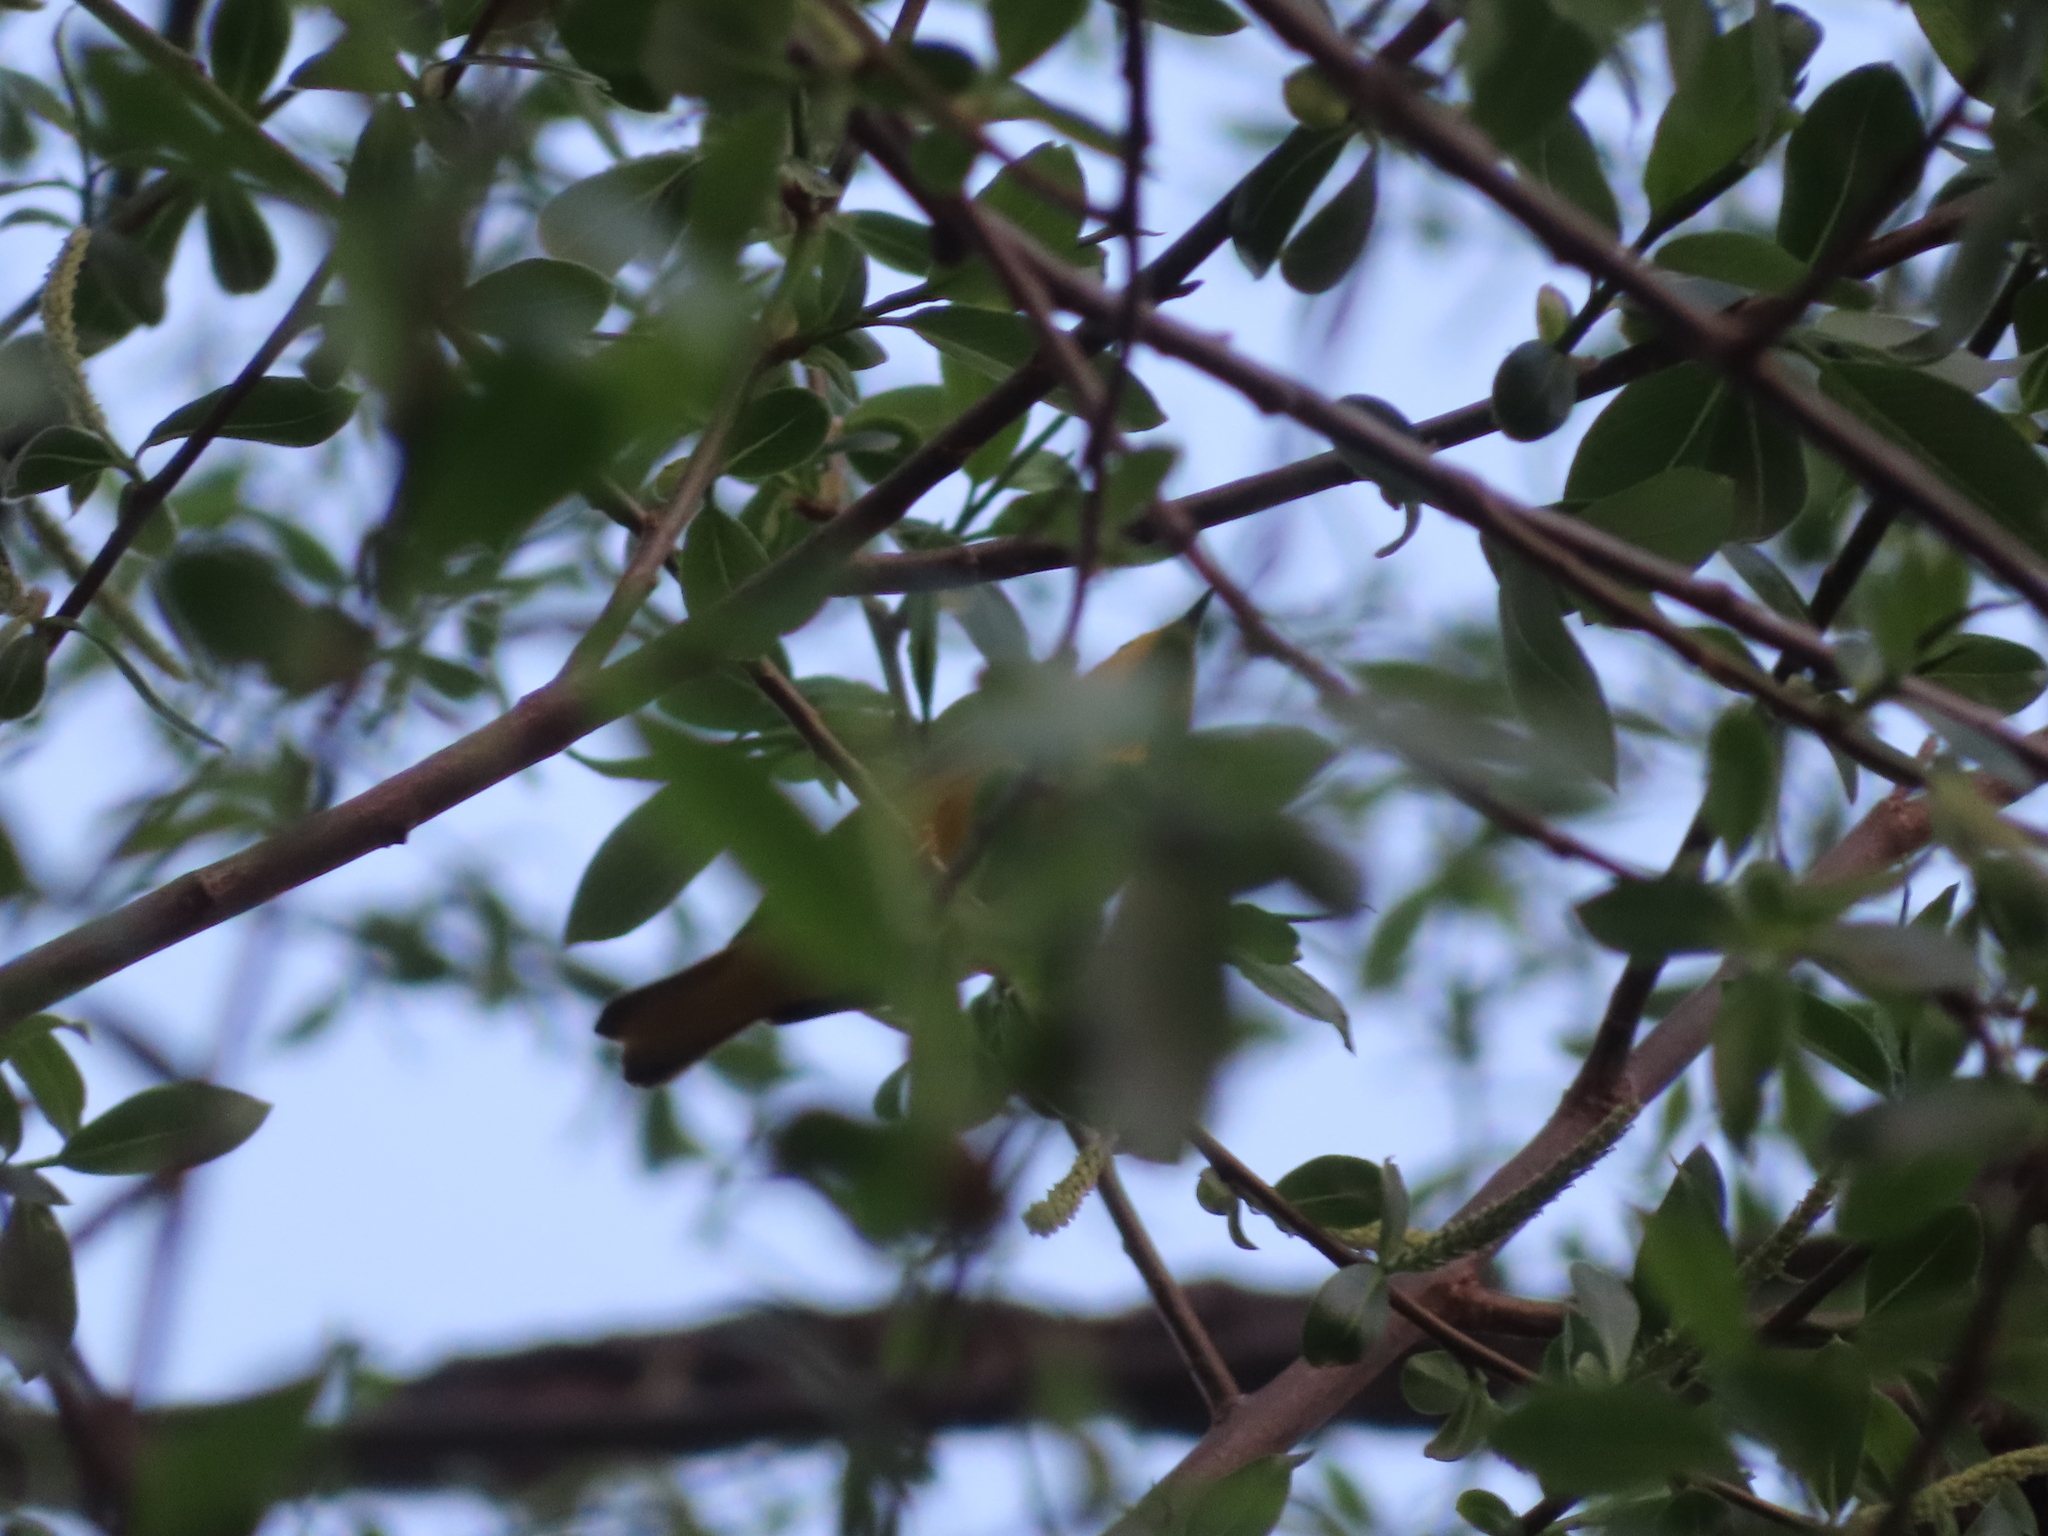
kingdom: Animalia
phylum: Chordata
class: Aves
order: Passeriformes
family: Parulidae
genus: Setophaga
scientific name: Setophaga petechia
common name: Yellow warbler
